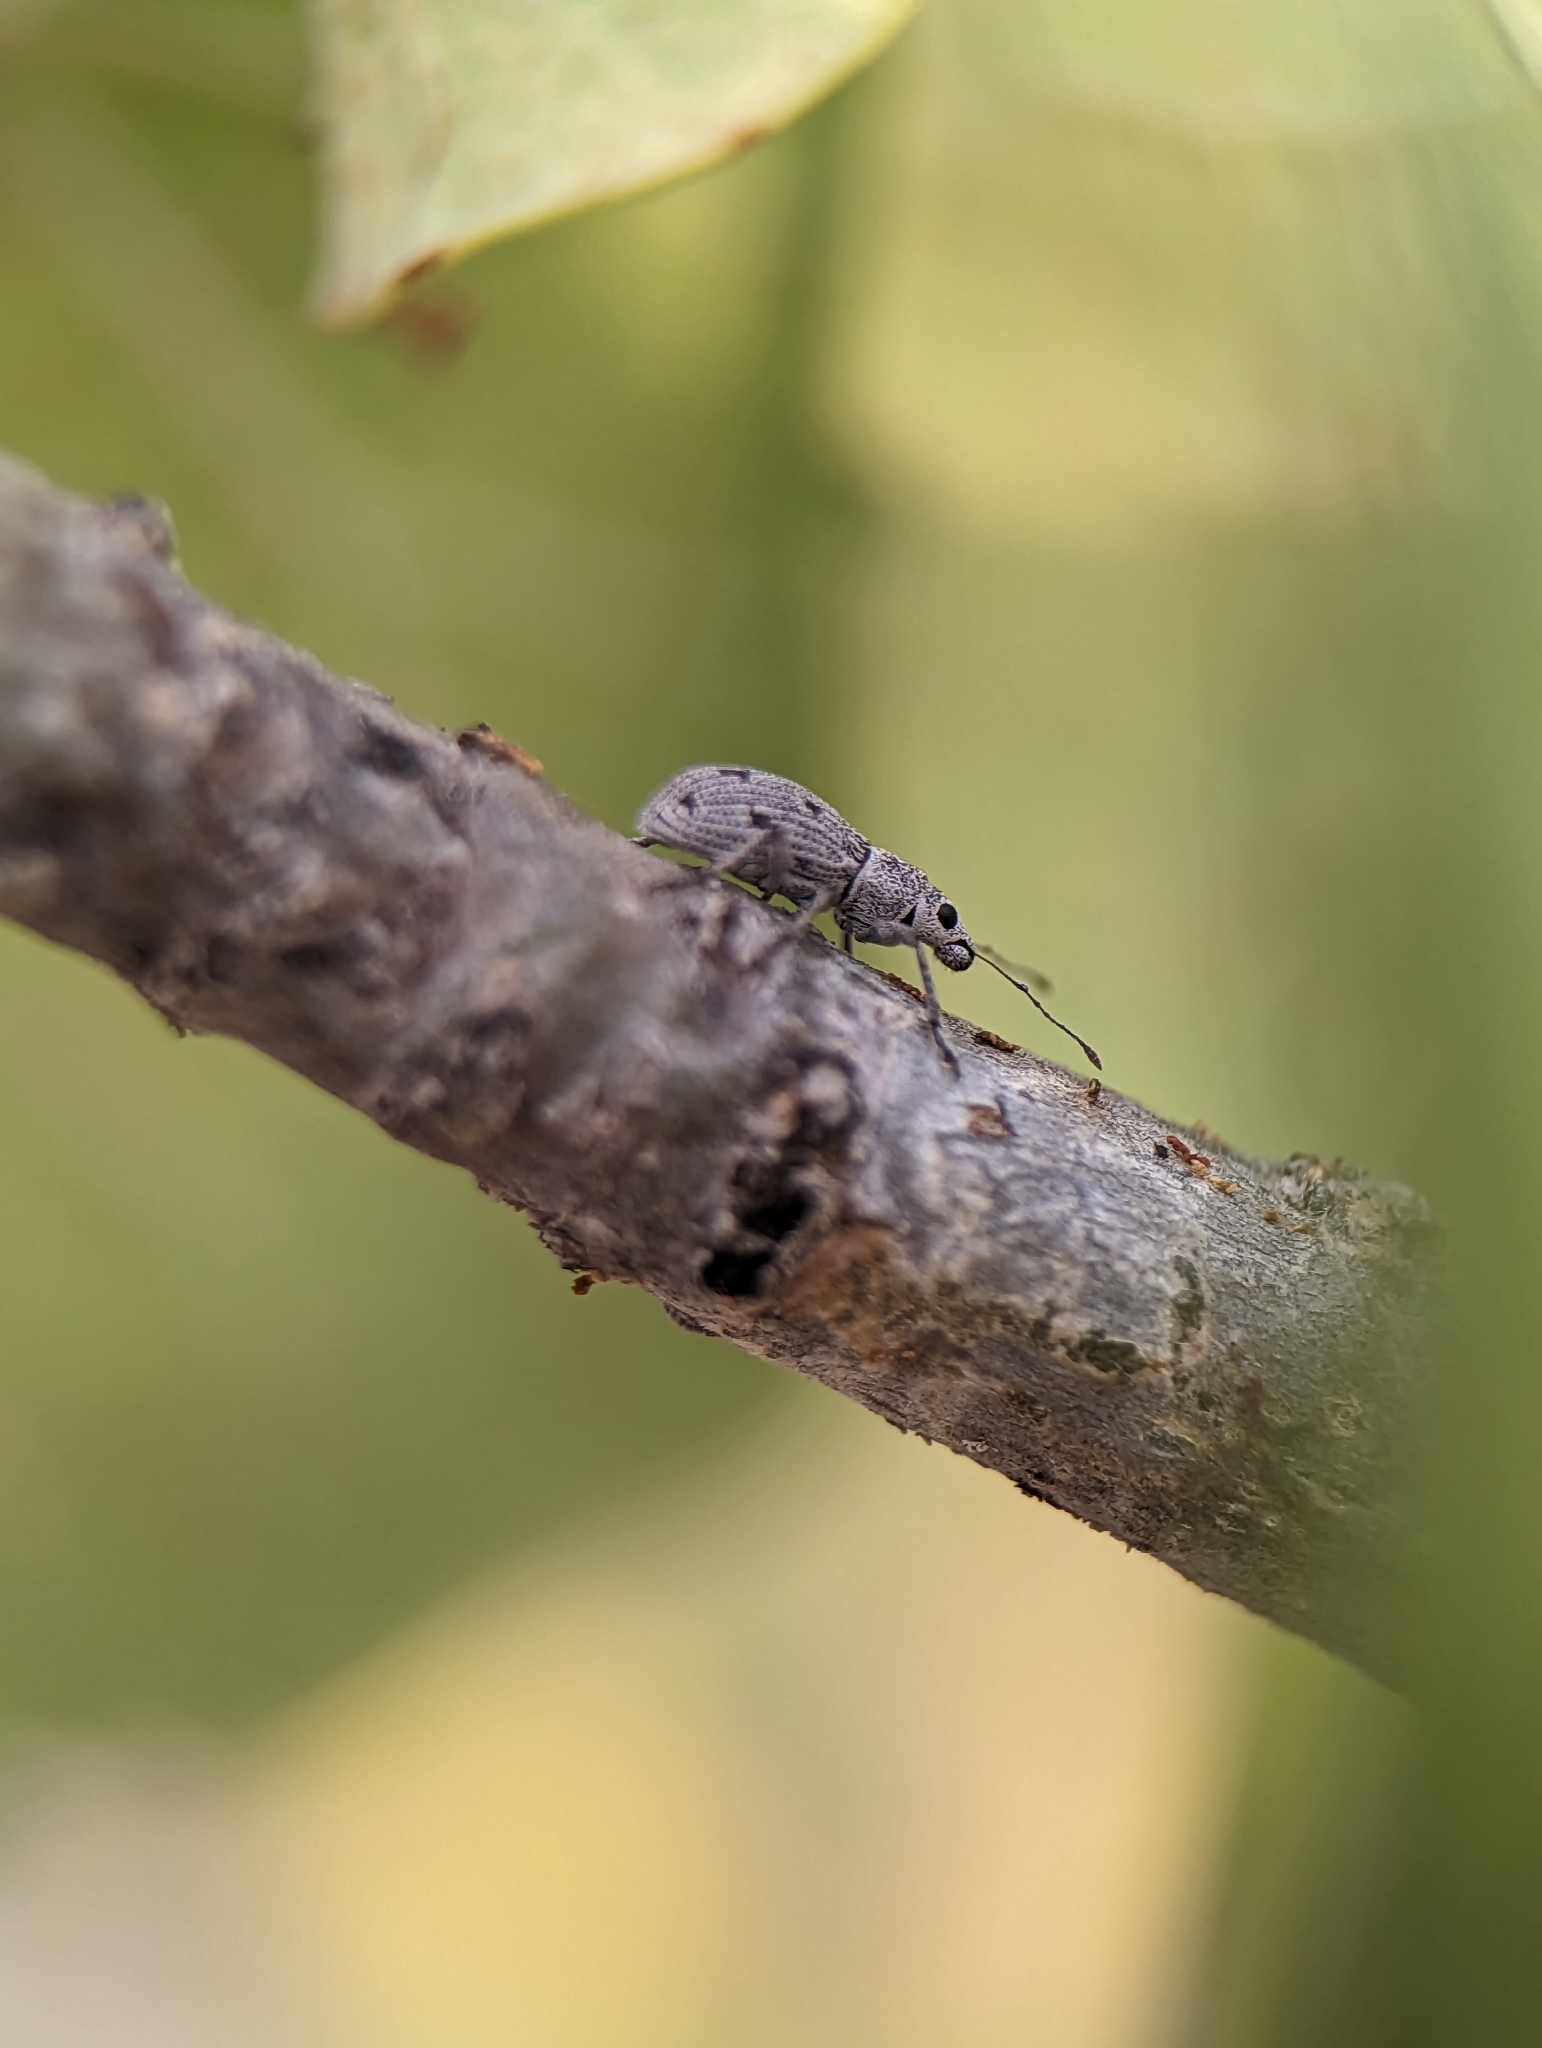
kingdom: Animalia
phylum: Arthropoda
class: Insecta
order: Coleoptera
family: Curculionidae
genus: Mitostylus
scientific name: Mitostylus fragilis
